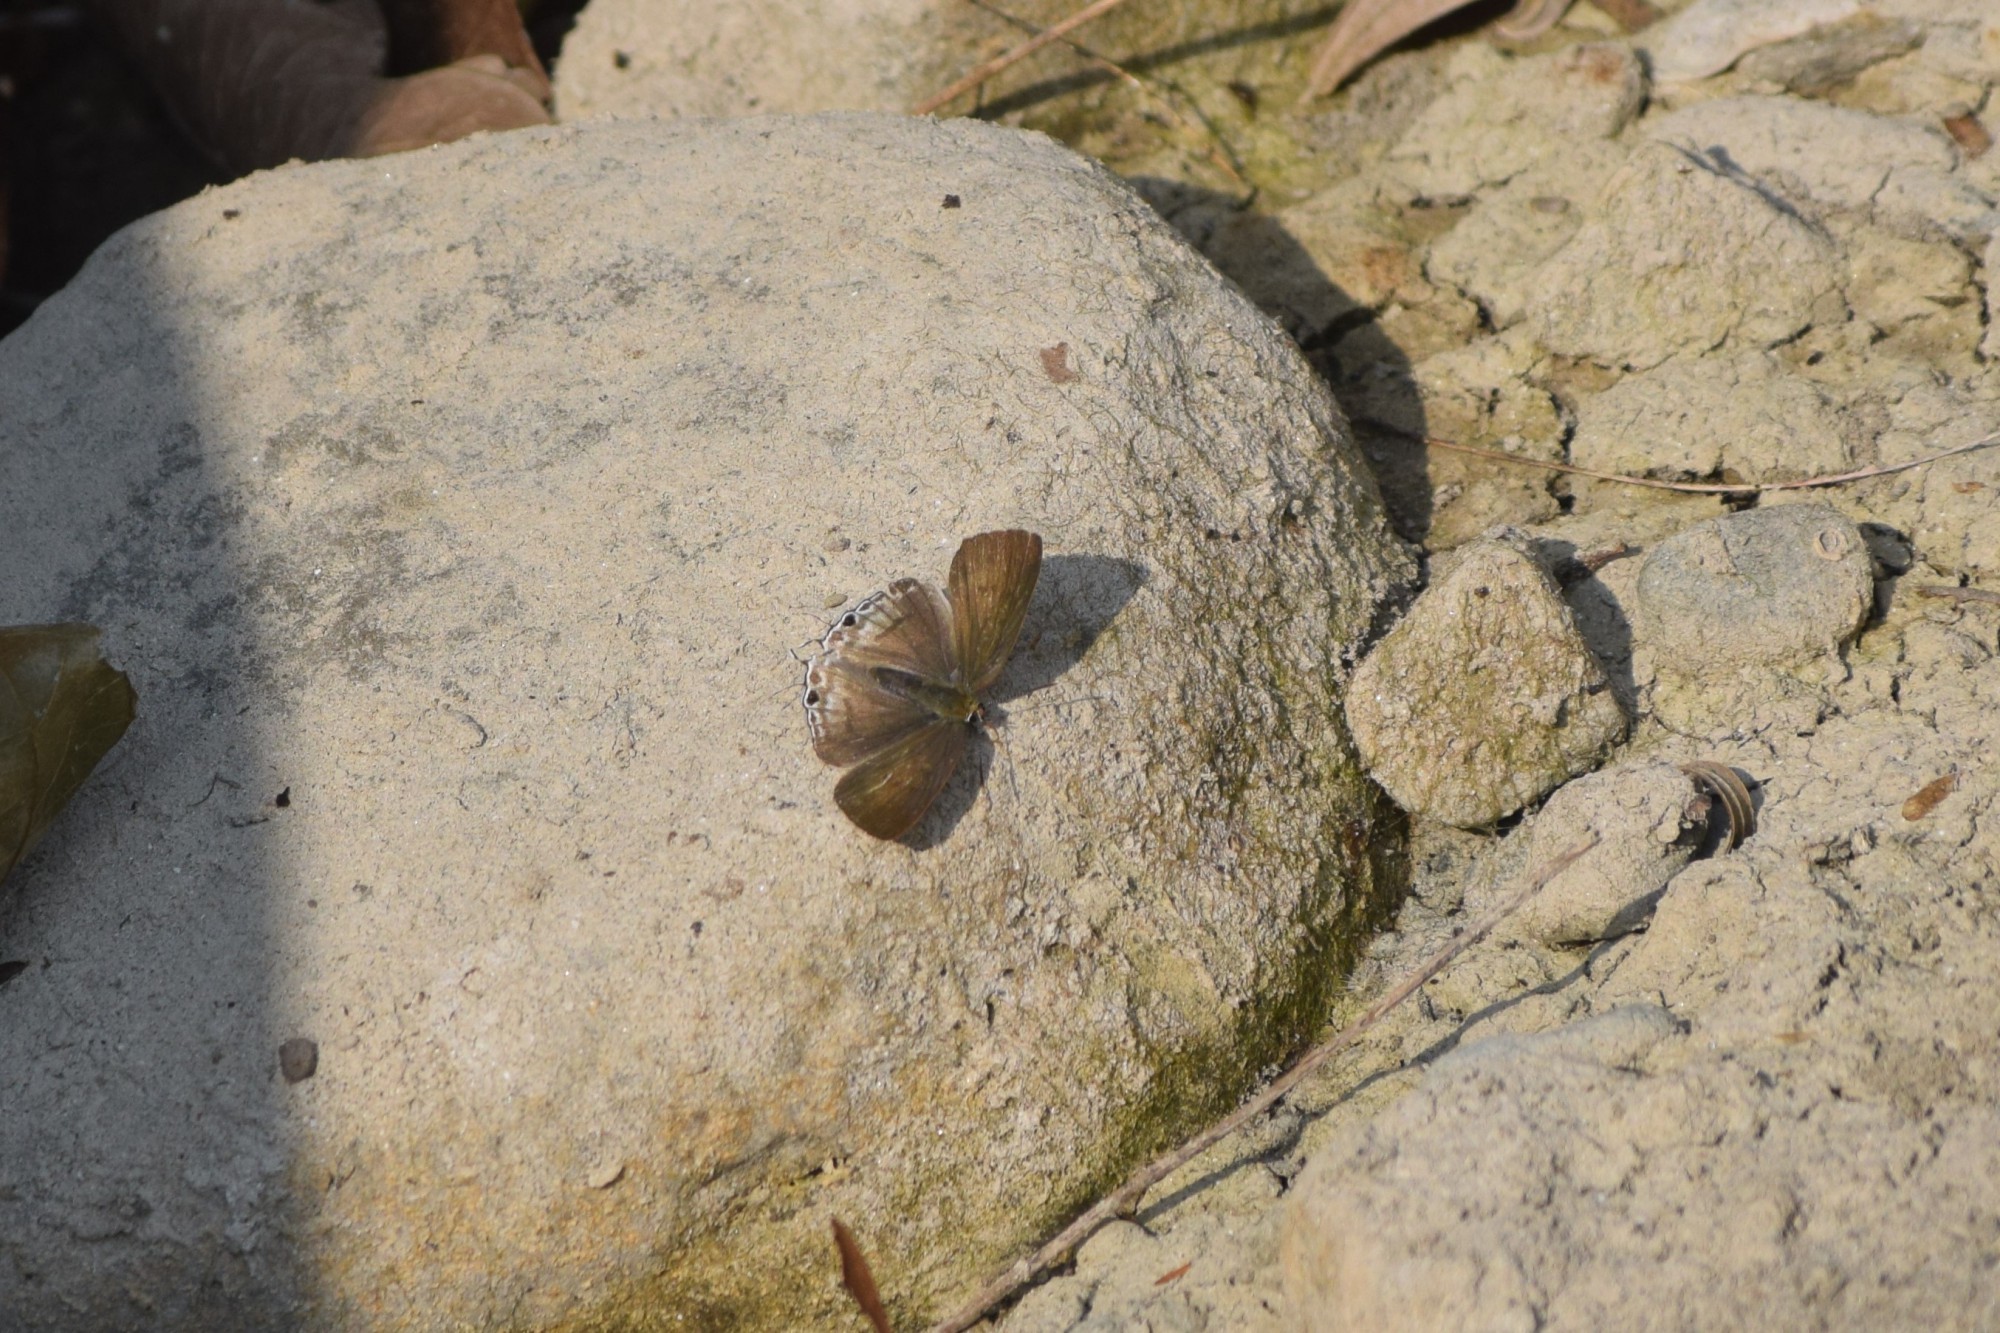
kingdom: Animalia
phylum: Arthropoda
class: Insecta
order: Lepidoptera
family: Lycaenidae
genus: Hypolycaena
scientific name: Hypolycaena erylus
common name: Common tit
